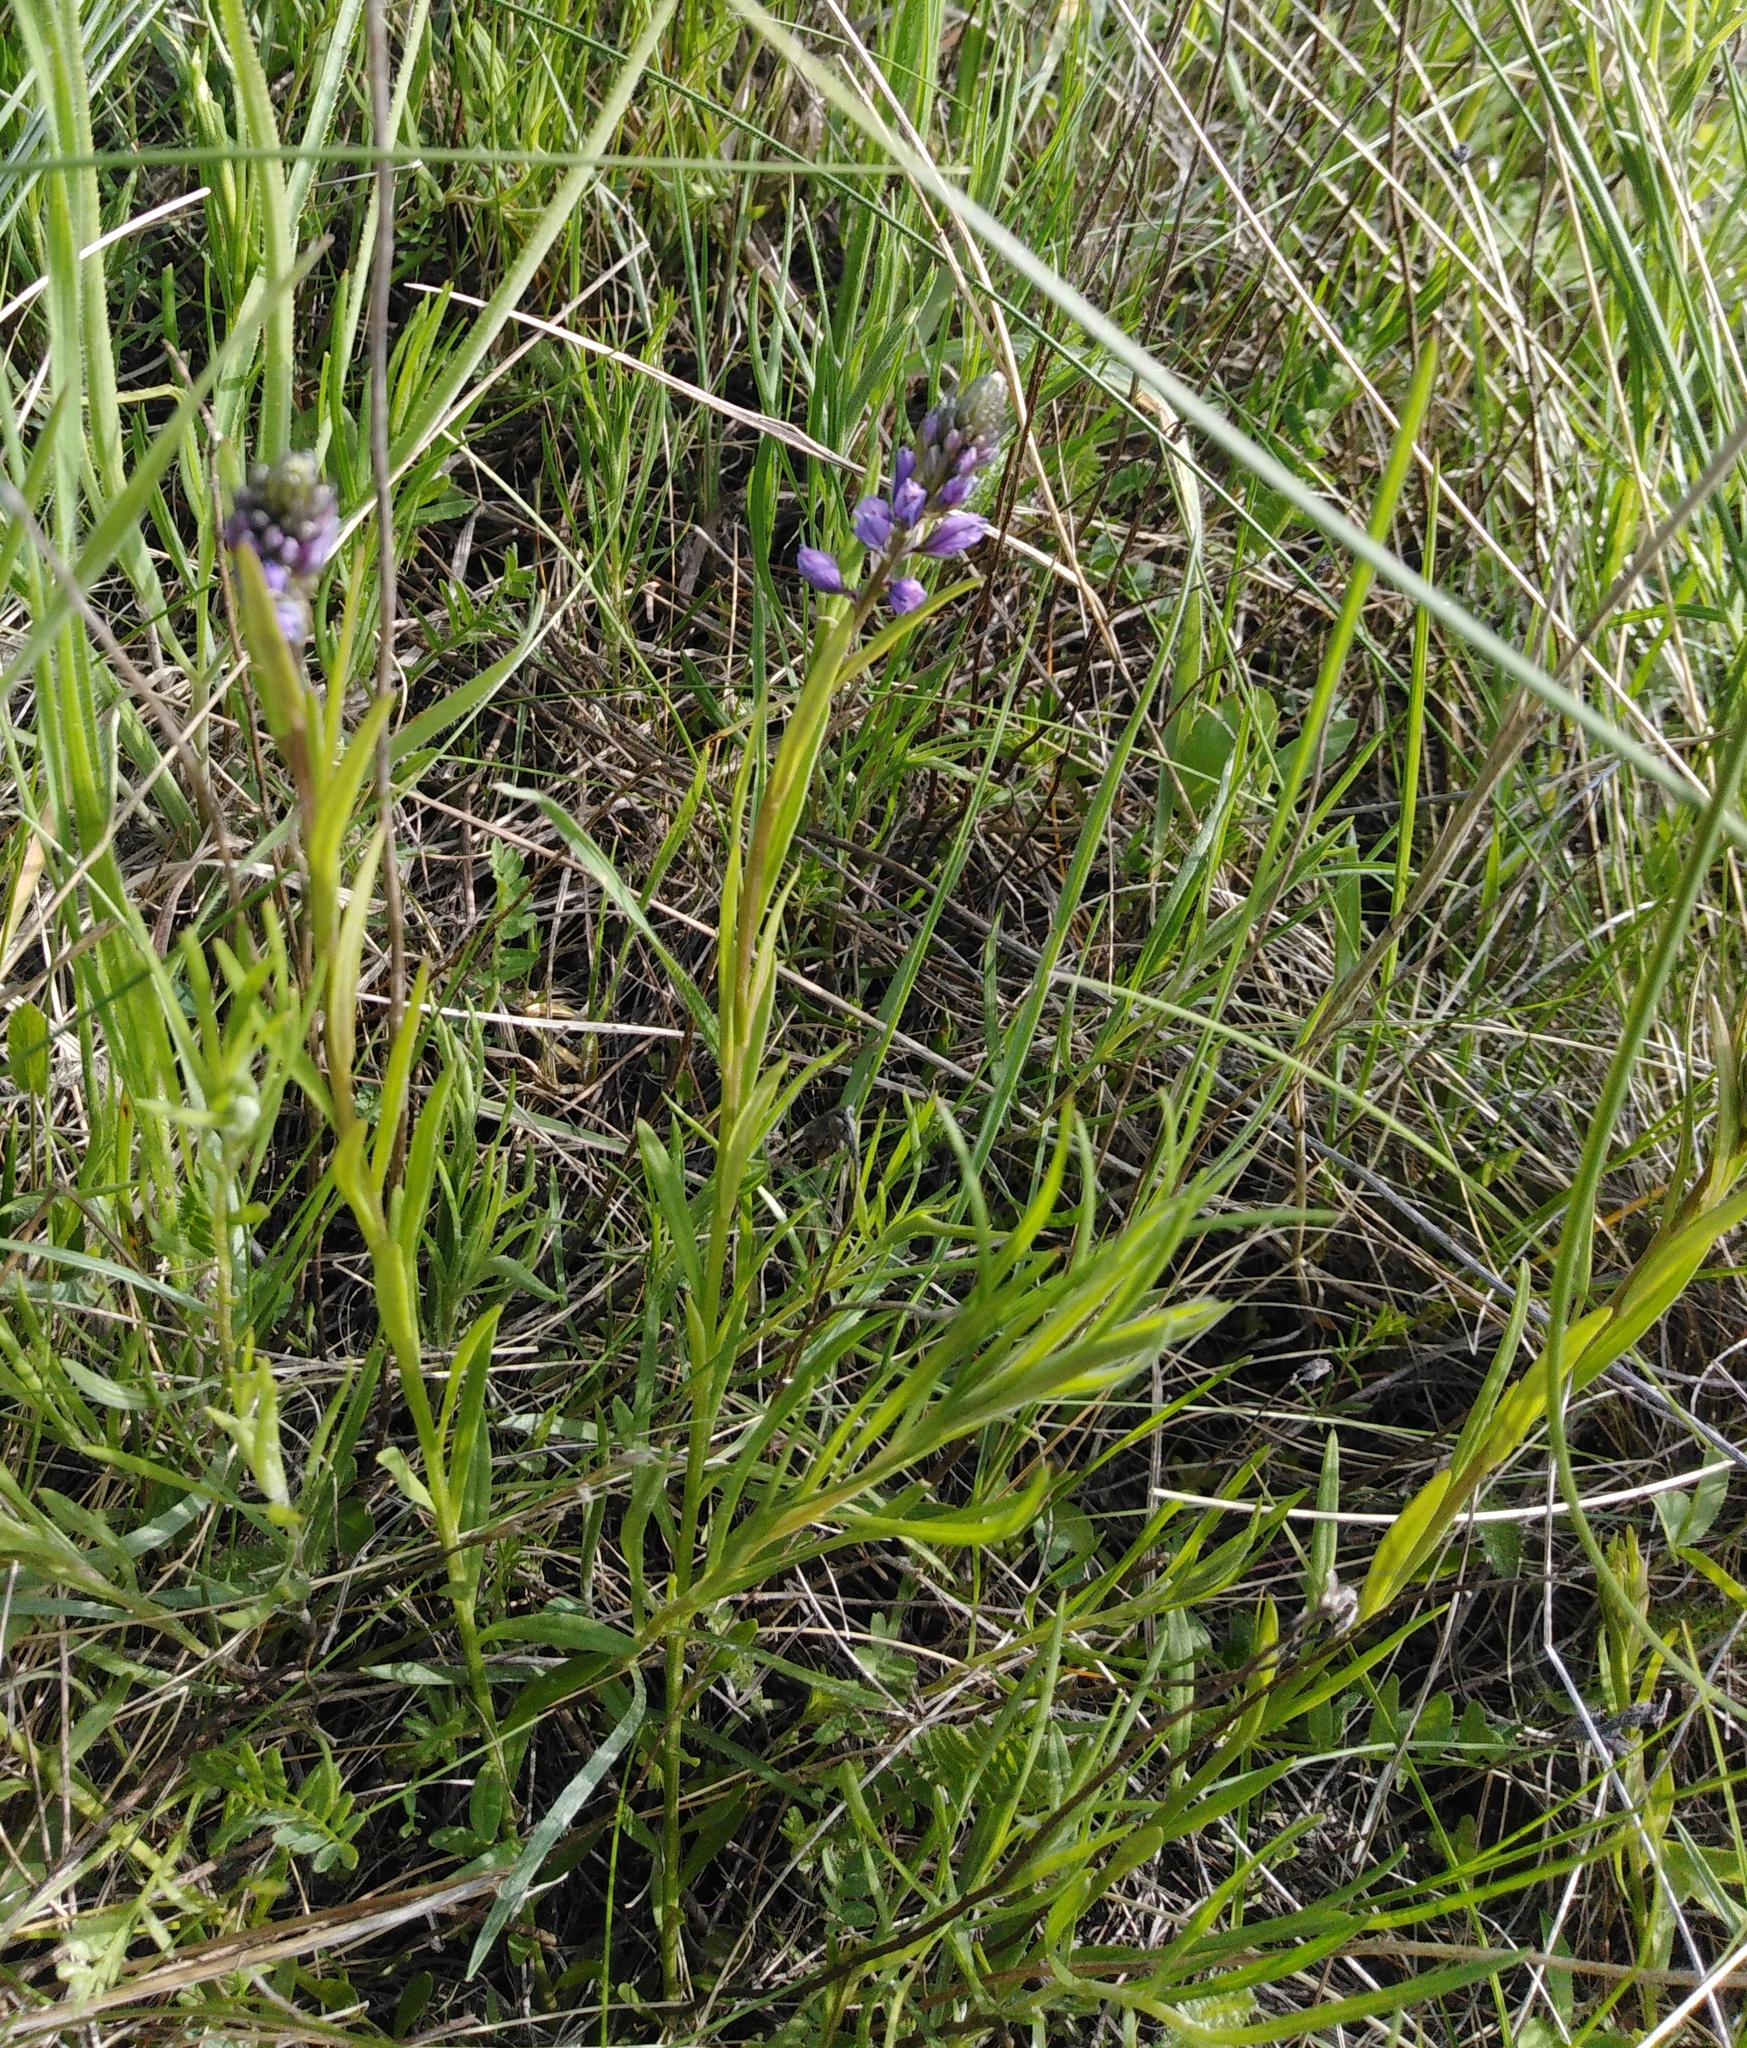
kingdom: Plantae
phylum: Tracheophyta
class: Magnoliopsida
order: Fabales
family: Polygalaceae
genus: Polygala
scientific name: Polygala comosa
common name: Tufted milkwort
